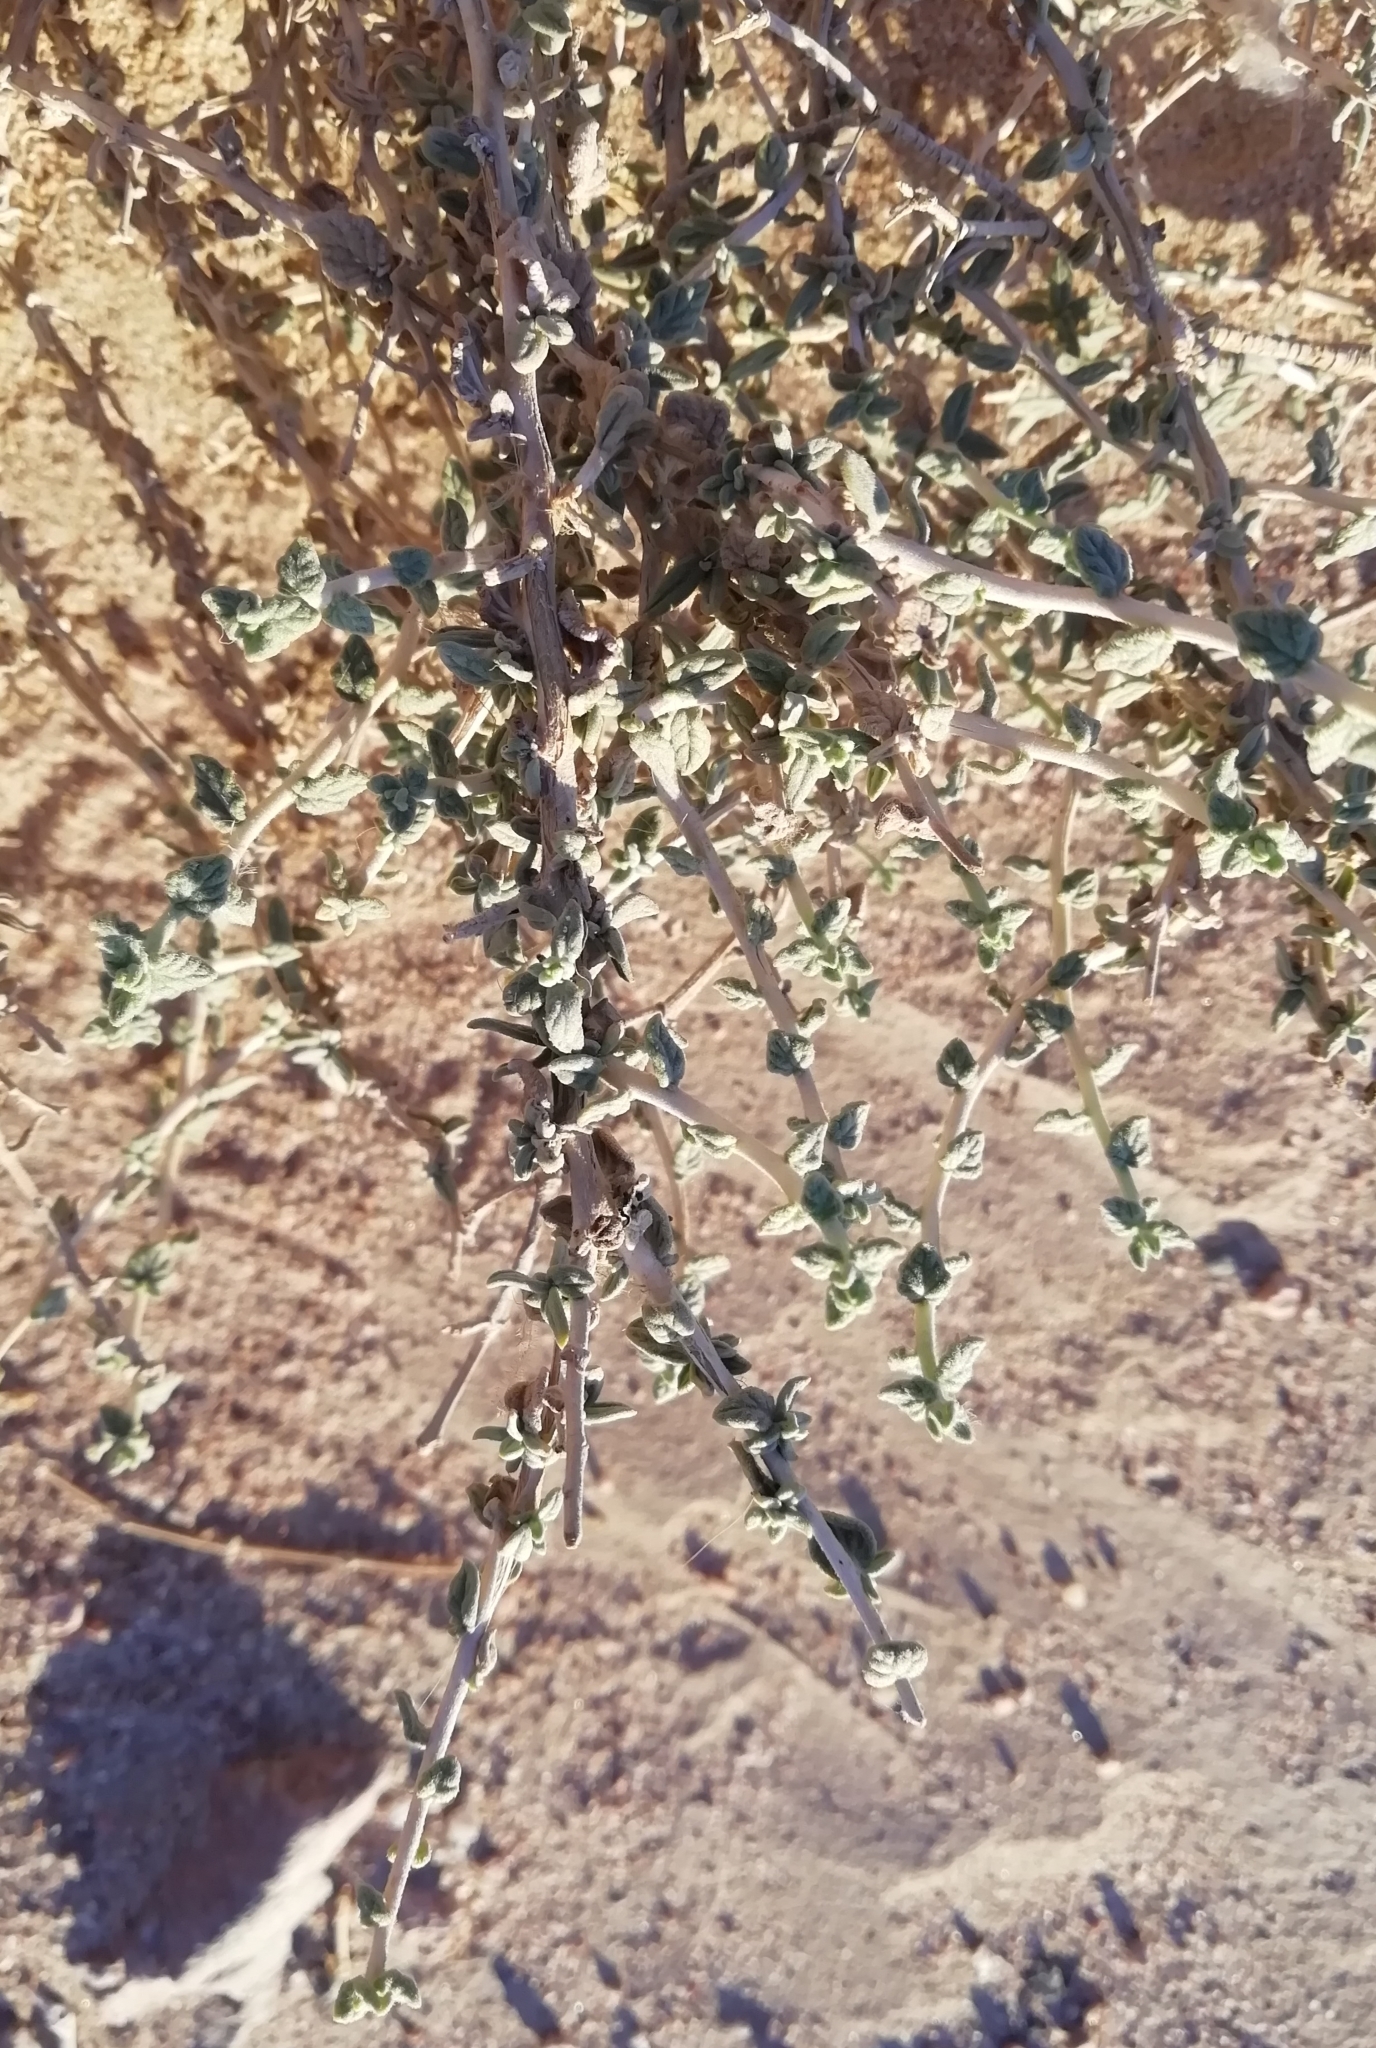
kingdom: Plantae
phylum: Tracheophyta
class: Magnoliopsida
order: Boraginales
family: Heliotropiaceae
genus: Heliotropium
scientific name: Heliotropium bacciferum
